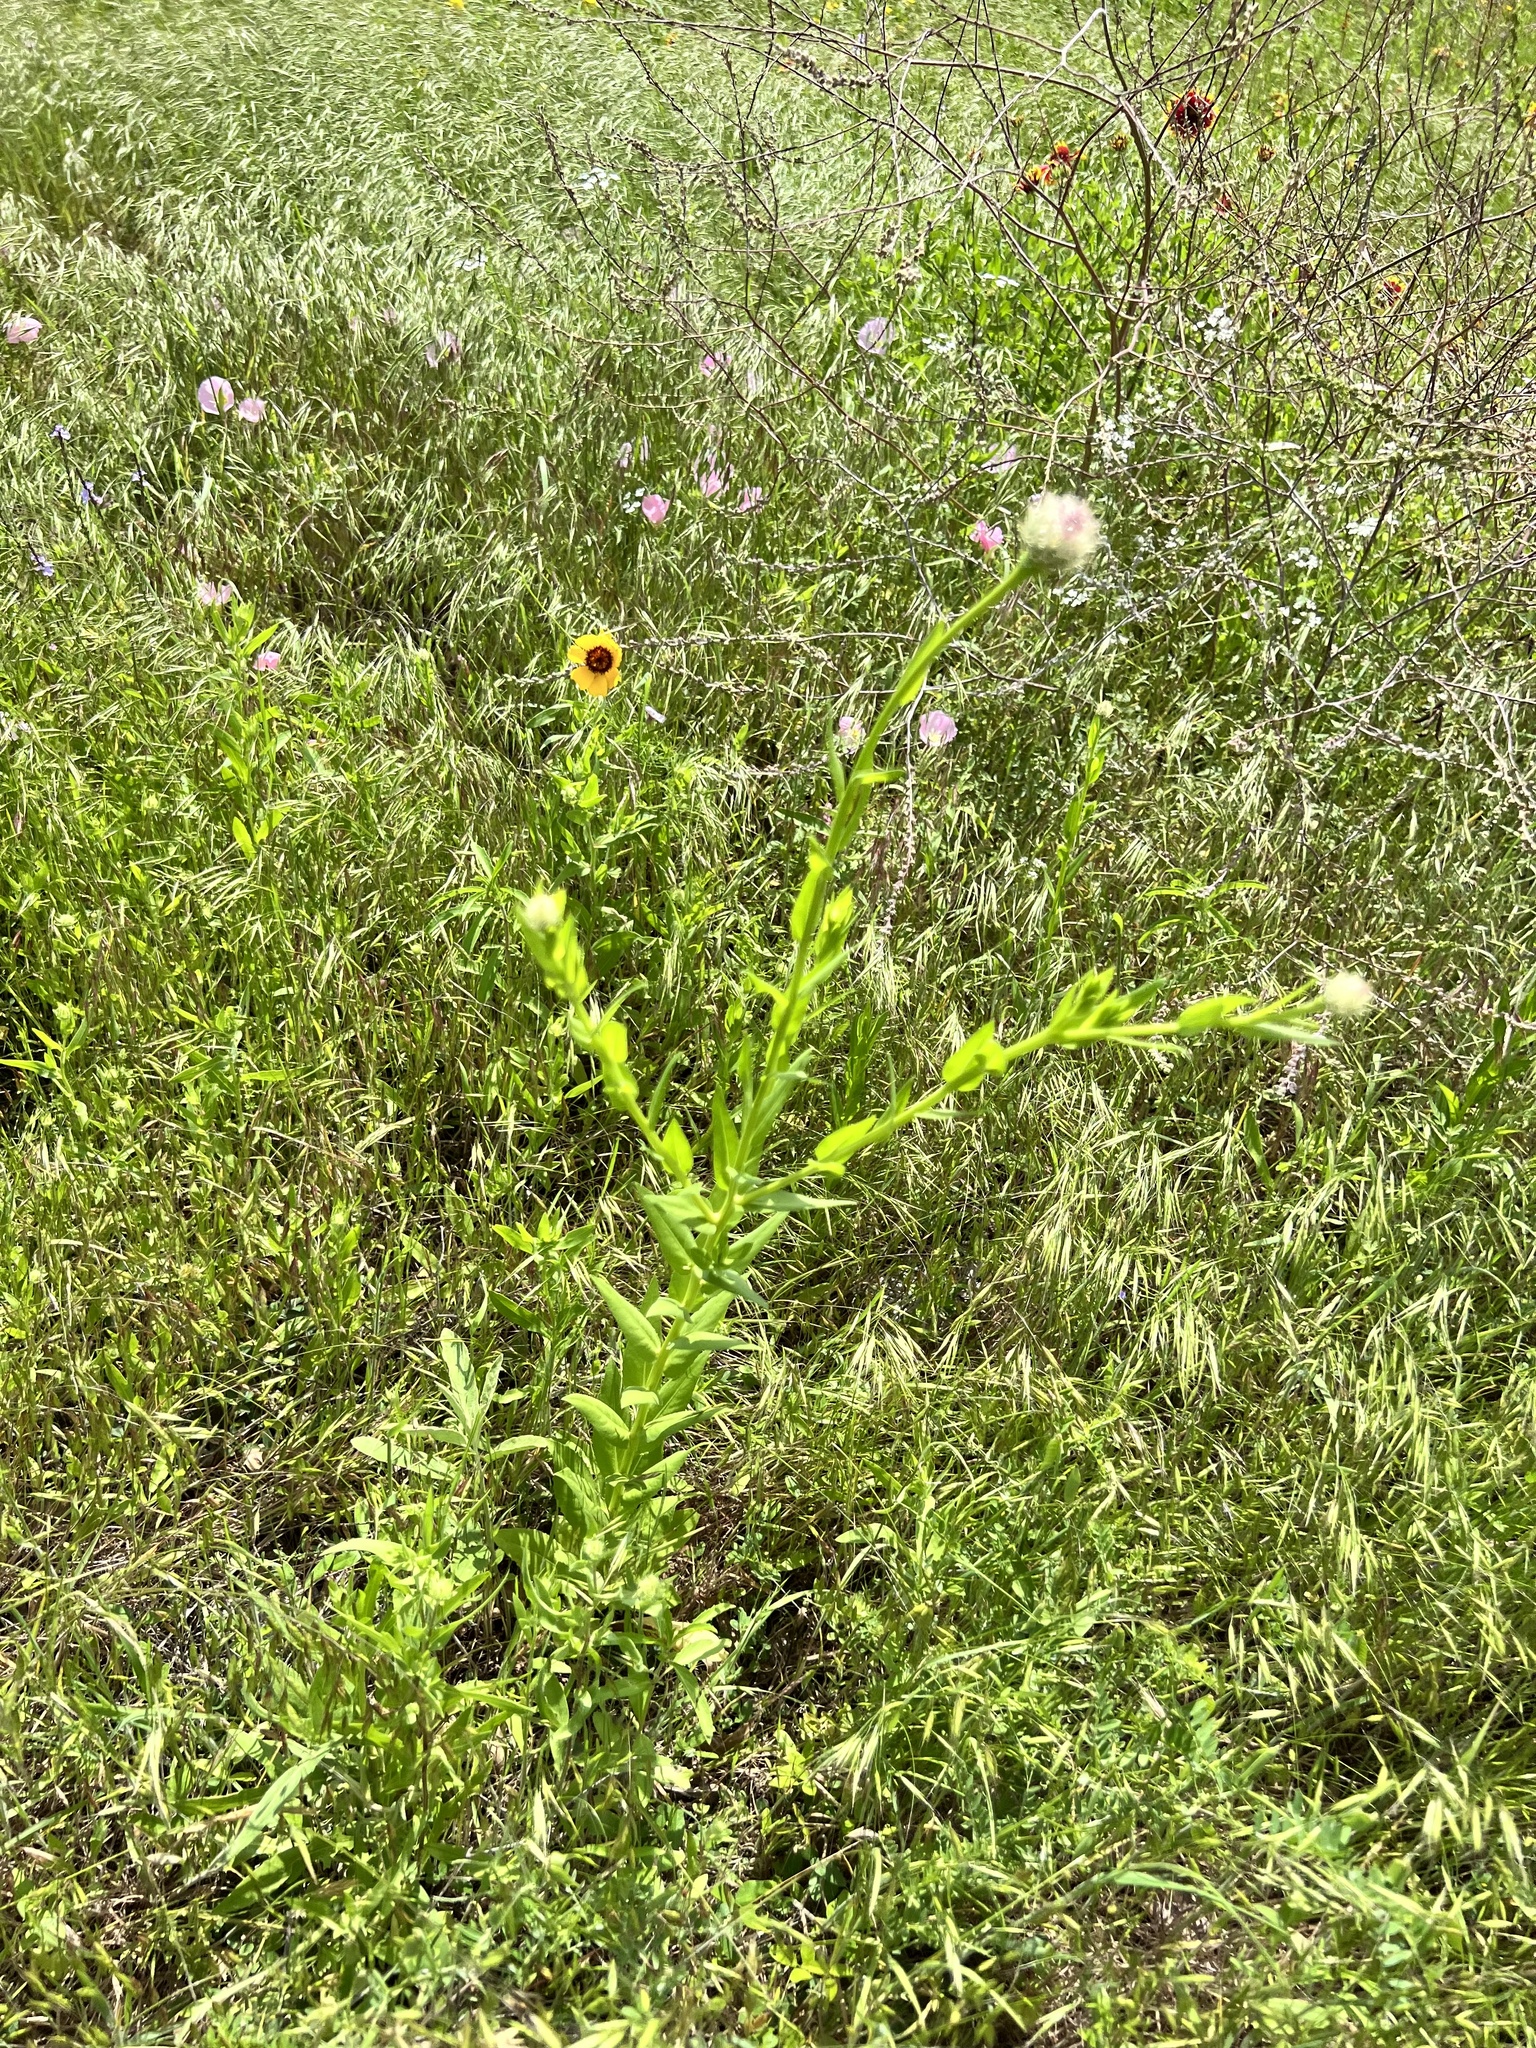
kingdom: Plantae
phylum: Tracheophyta
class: Magnoliopsida
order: Asterales
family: Asteraceae
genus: Plectocephalus
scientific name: Plectocephalus americanus
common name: American basket-flower
